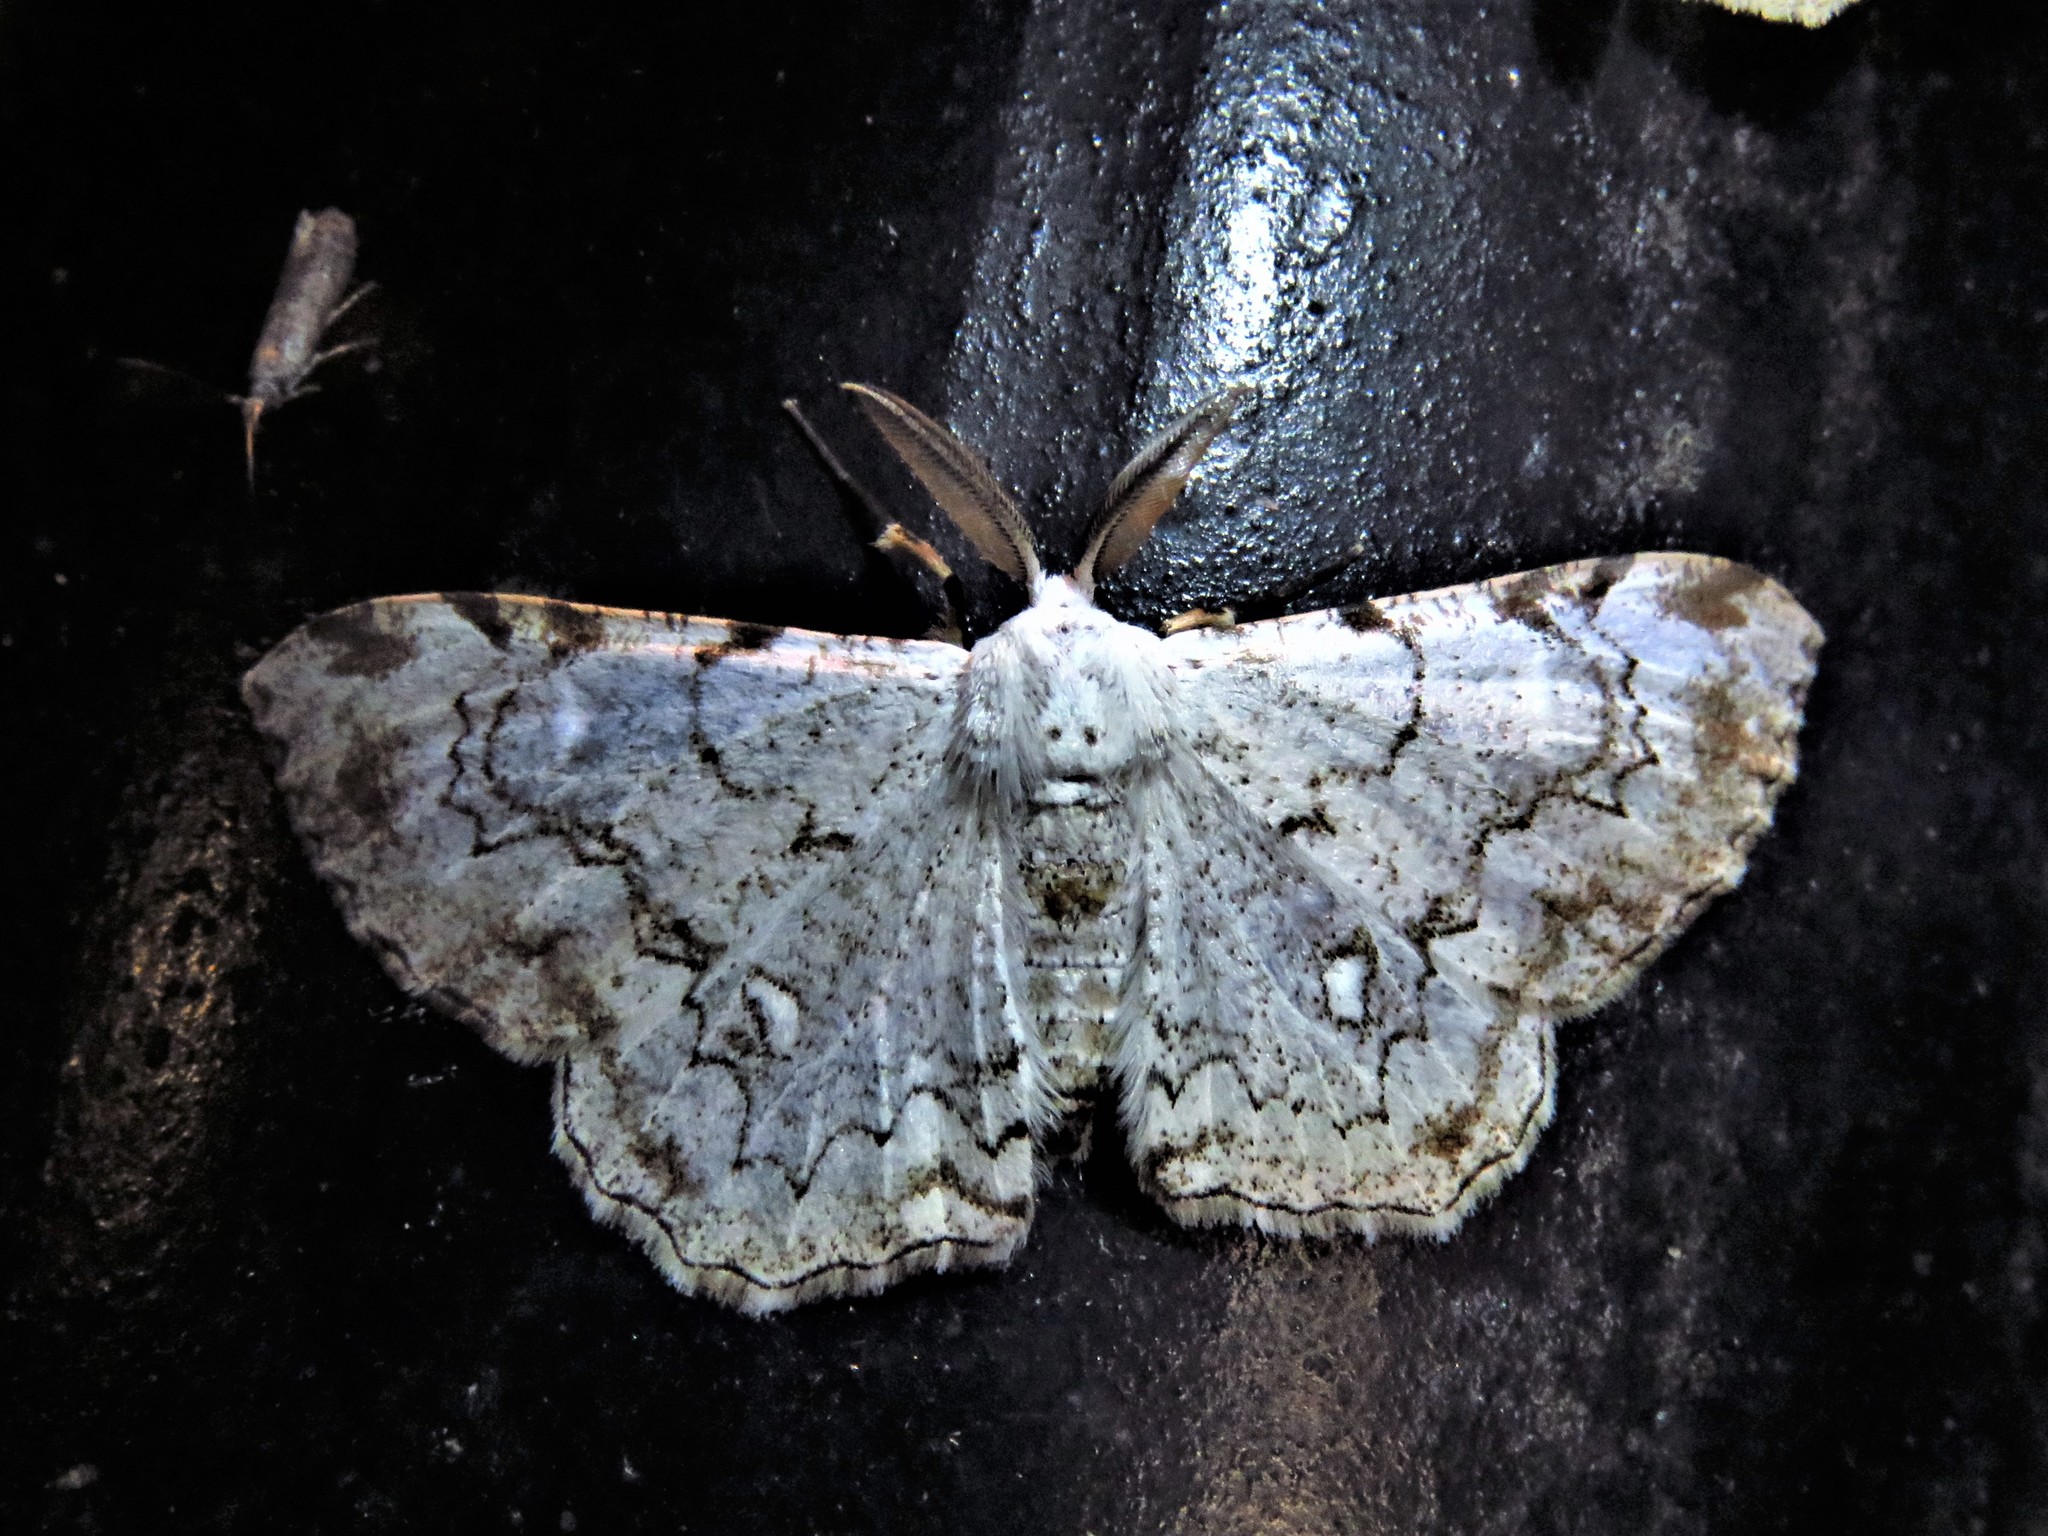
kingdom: Animalia
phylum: Arthropoda
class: Insecta
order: Lepidoptera
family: Geometridae
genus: Thyrinteina
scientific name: Thyrinteina arnobia
